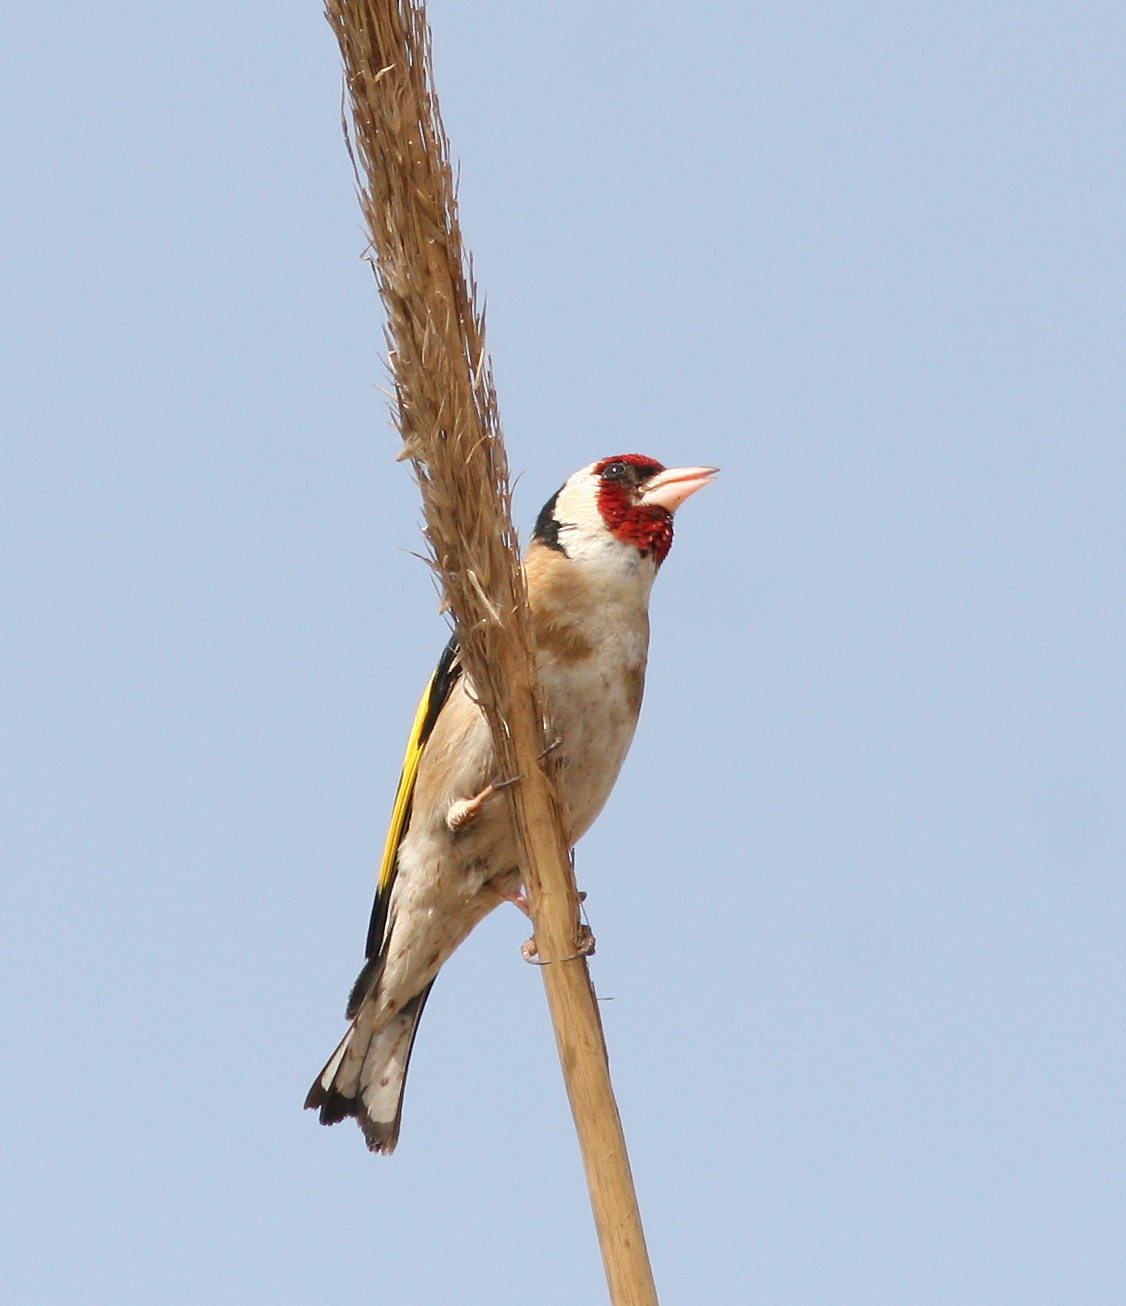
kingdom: Animalia
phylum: Chordata
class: Aves
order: Passeriformes
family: Fringillidae
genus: Carduelis
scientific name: Carduelis carduelis
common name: European goldfinch
